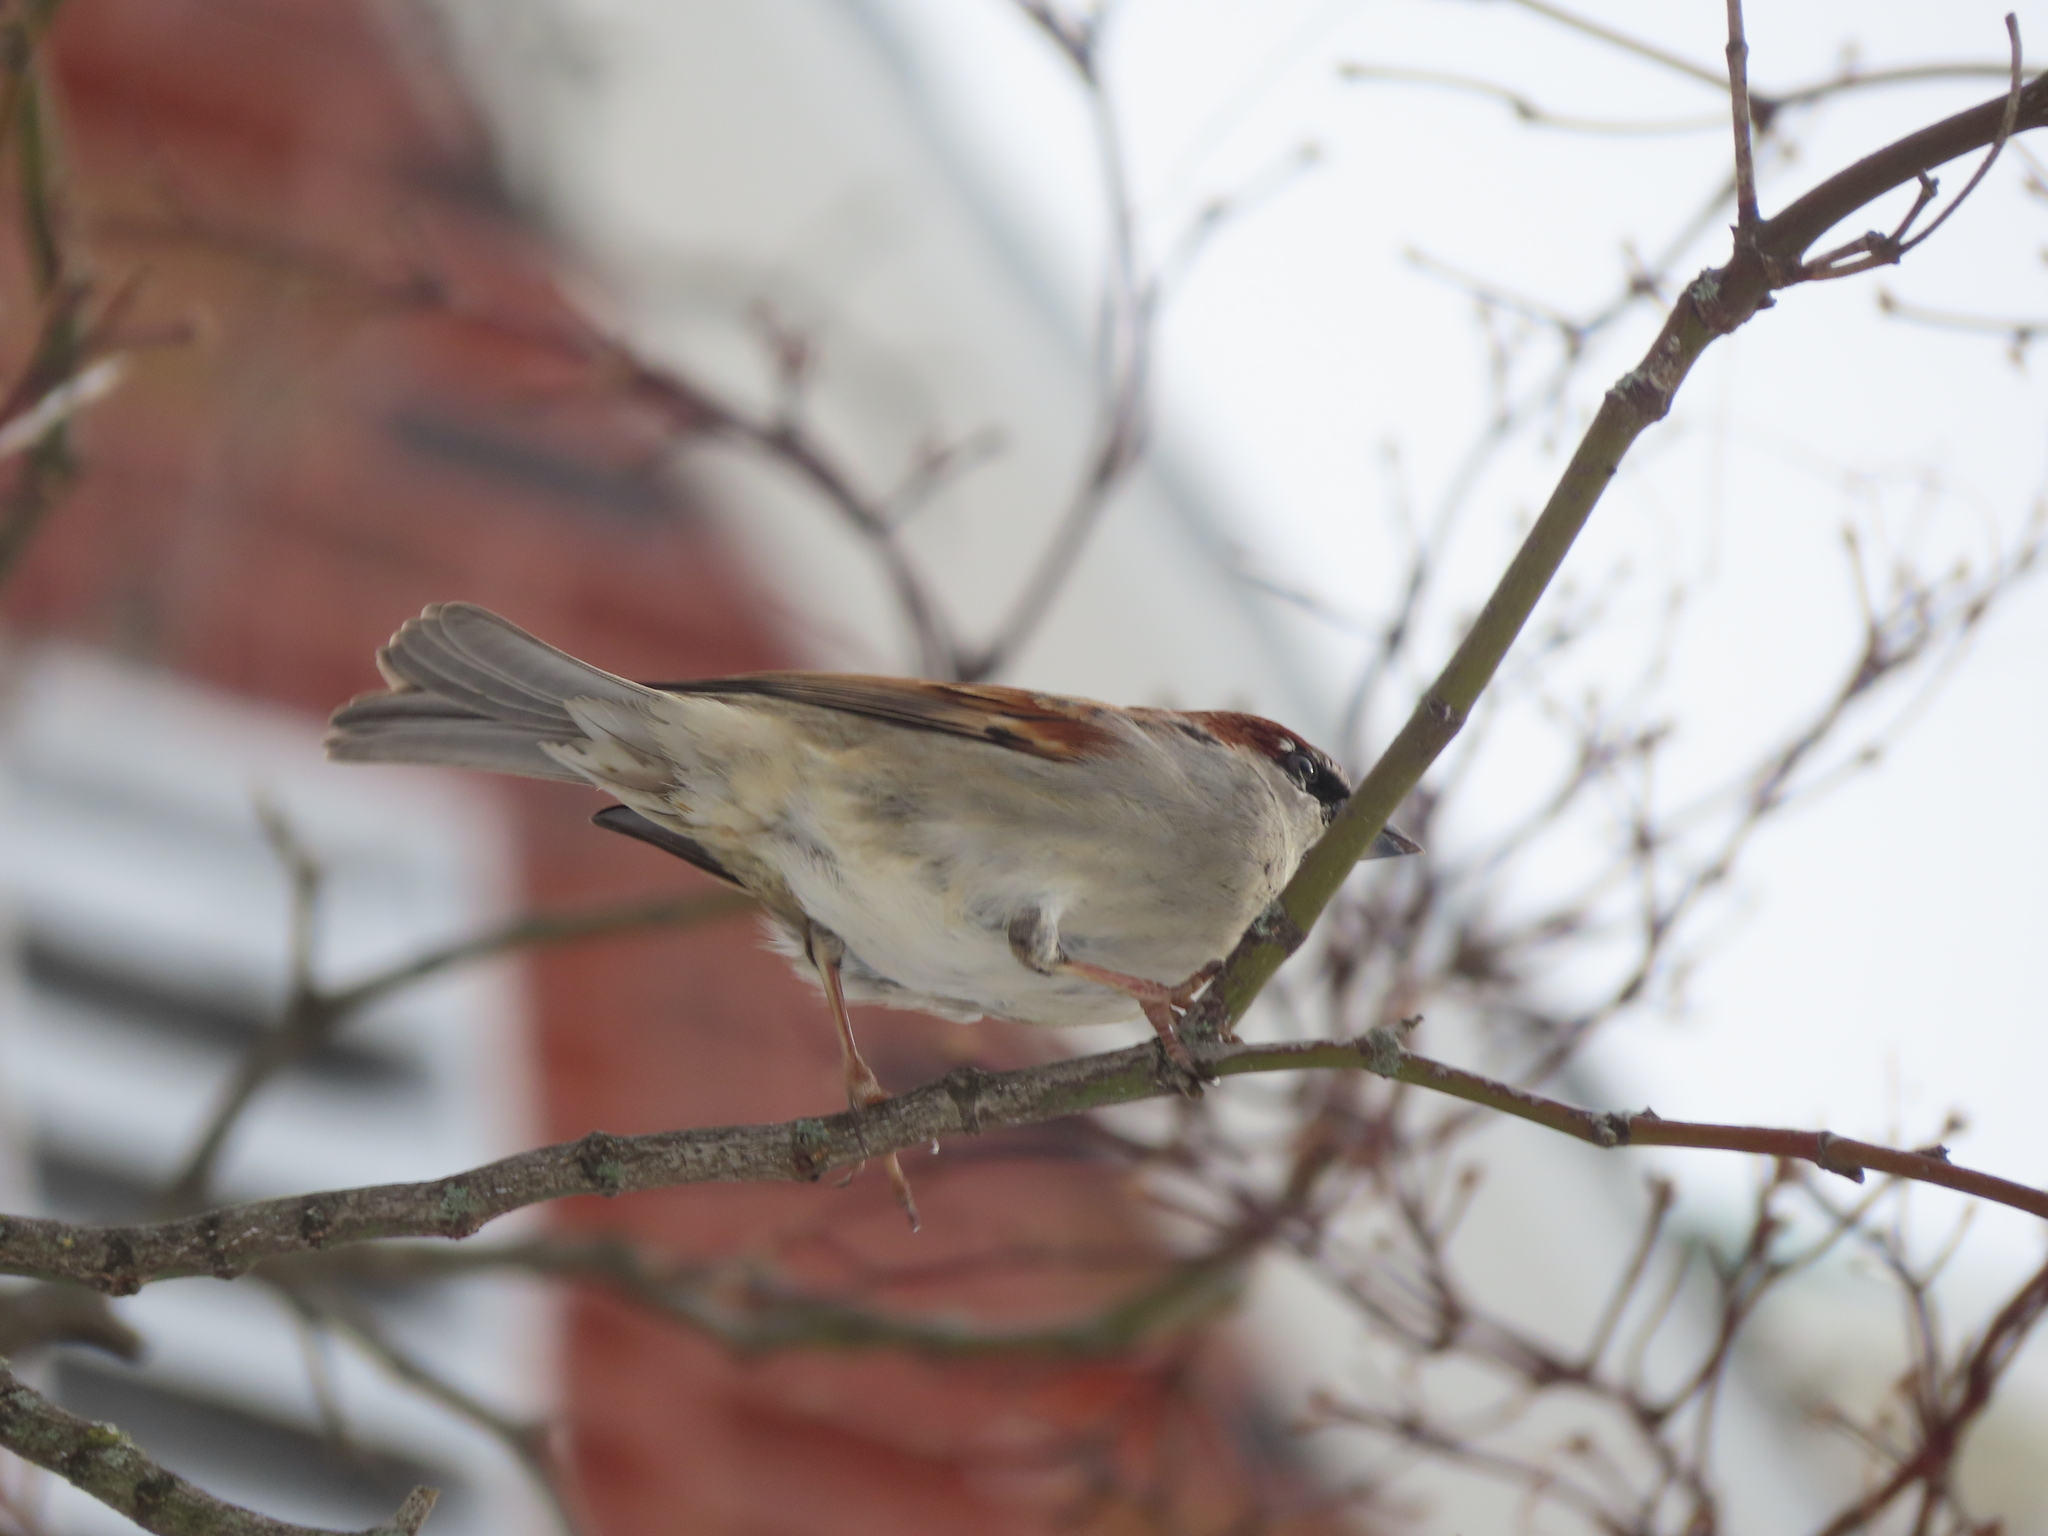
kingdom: Animalia
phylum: Chordata
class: Aves
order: Passeriformes
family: Passeridae
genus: Passer
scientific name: Passer domesticus
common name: House sparrow
